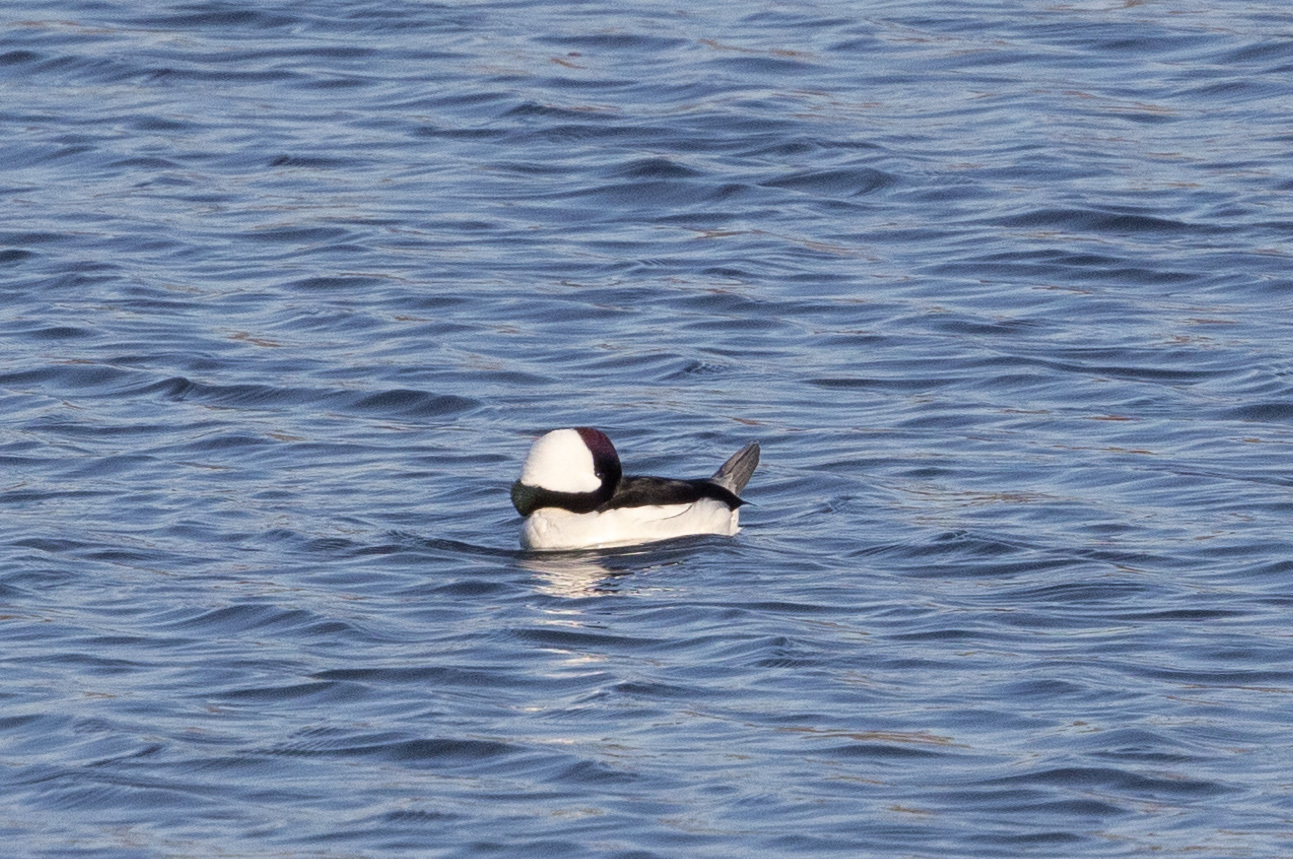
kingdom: Animalia
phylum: Chordata
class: Aves
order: Anseriformes
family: Anatidae
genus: Bucephala
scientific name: Bucephala albeola
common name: Bufflehead
